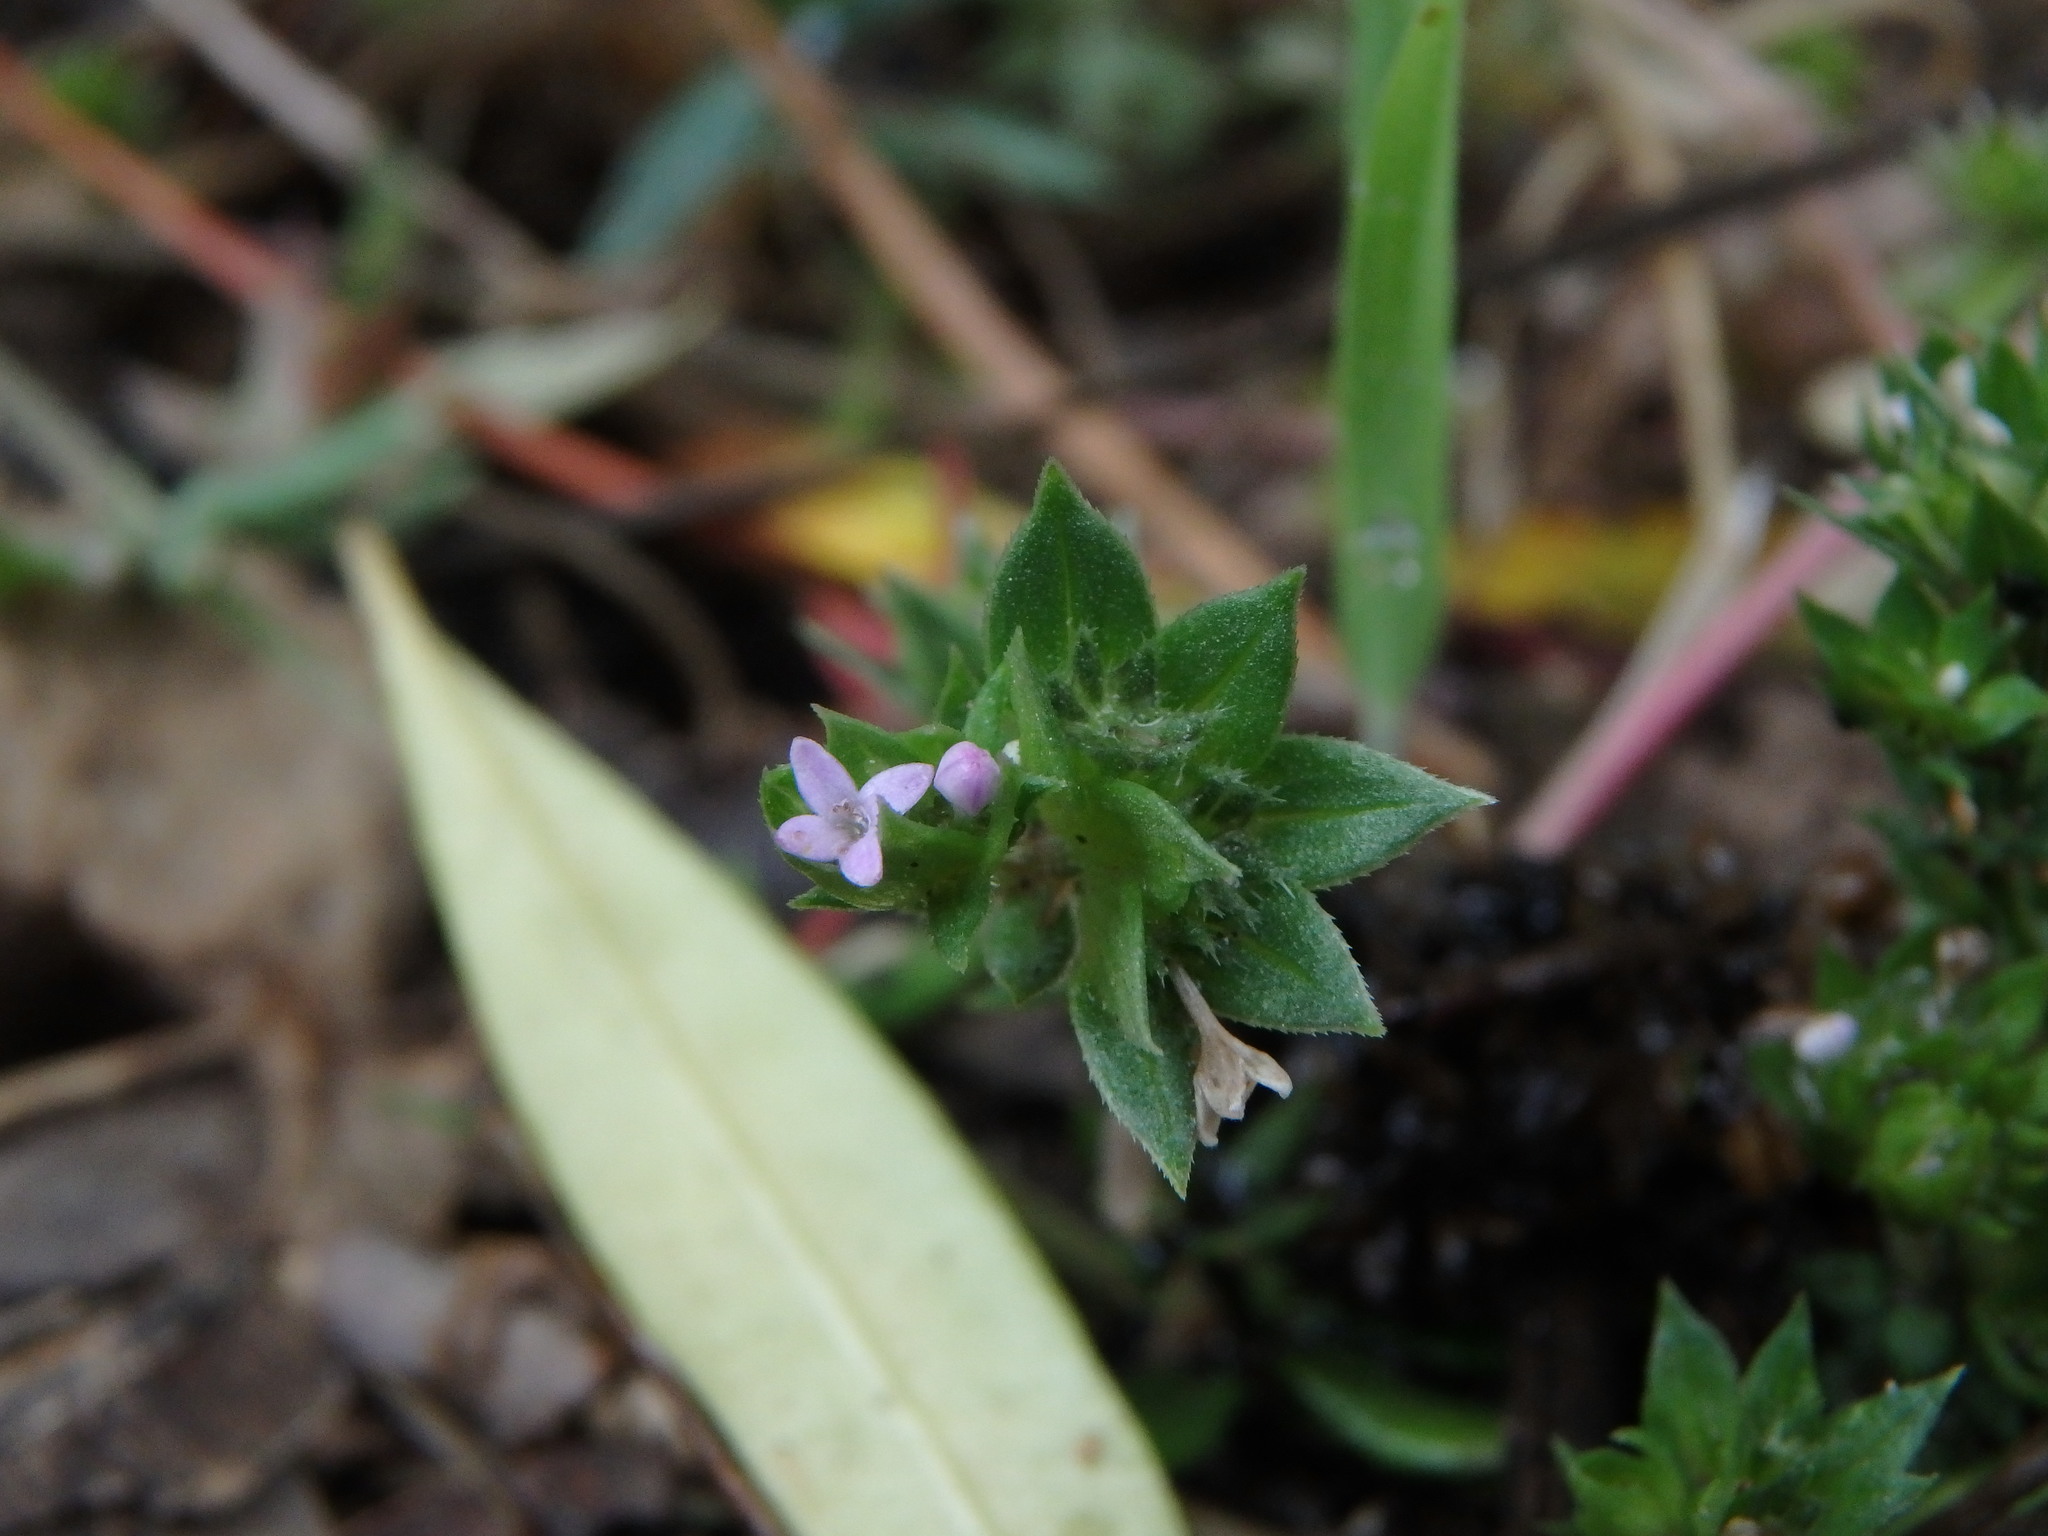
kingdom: Plantae
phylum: Tracheophyta
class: Magnoliopsida
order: Gentianales
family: Rubiaceae
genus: Sherardia
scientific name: Sherardia arvensis
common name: Field madder
